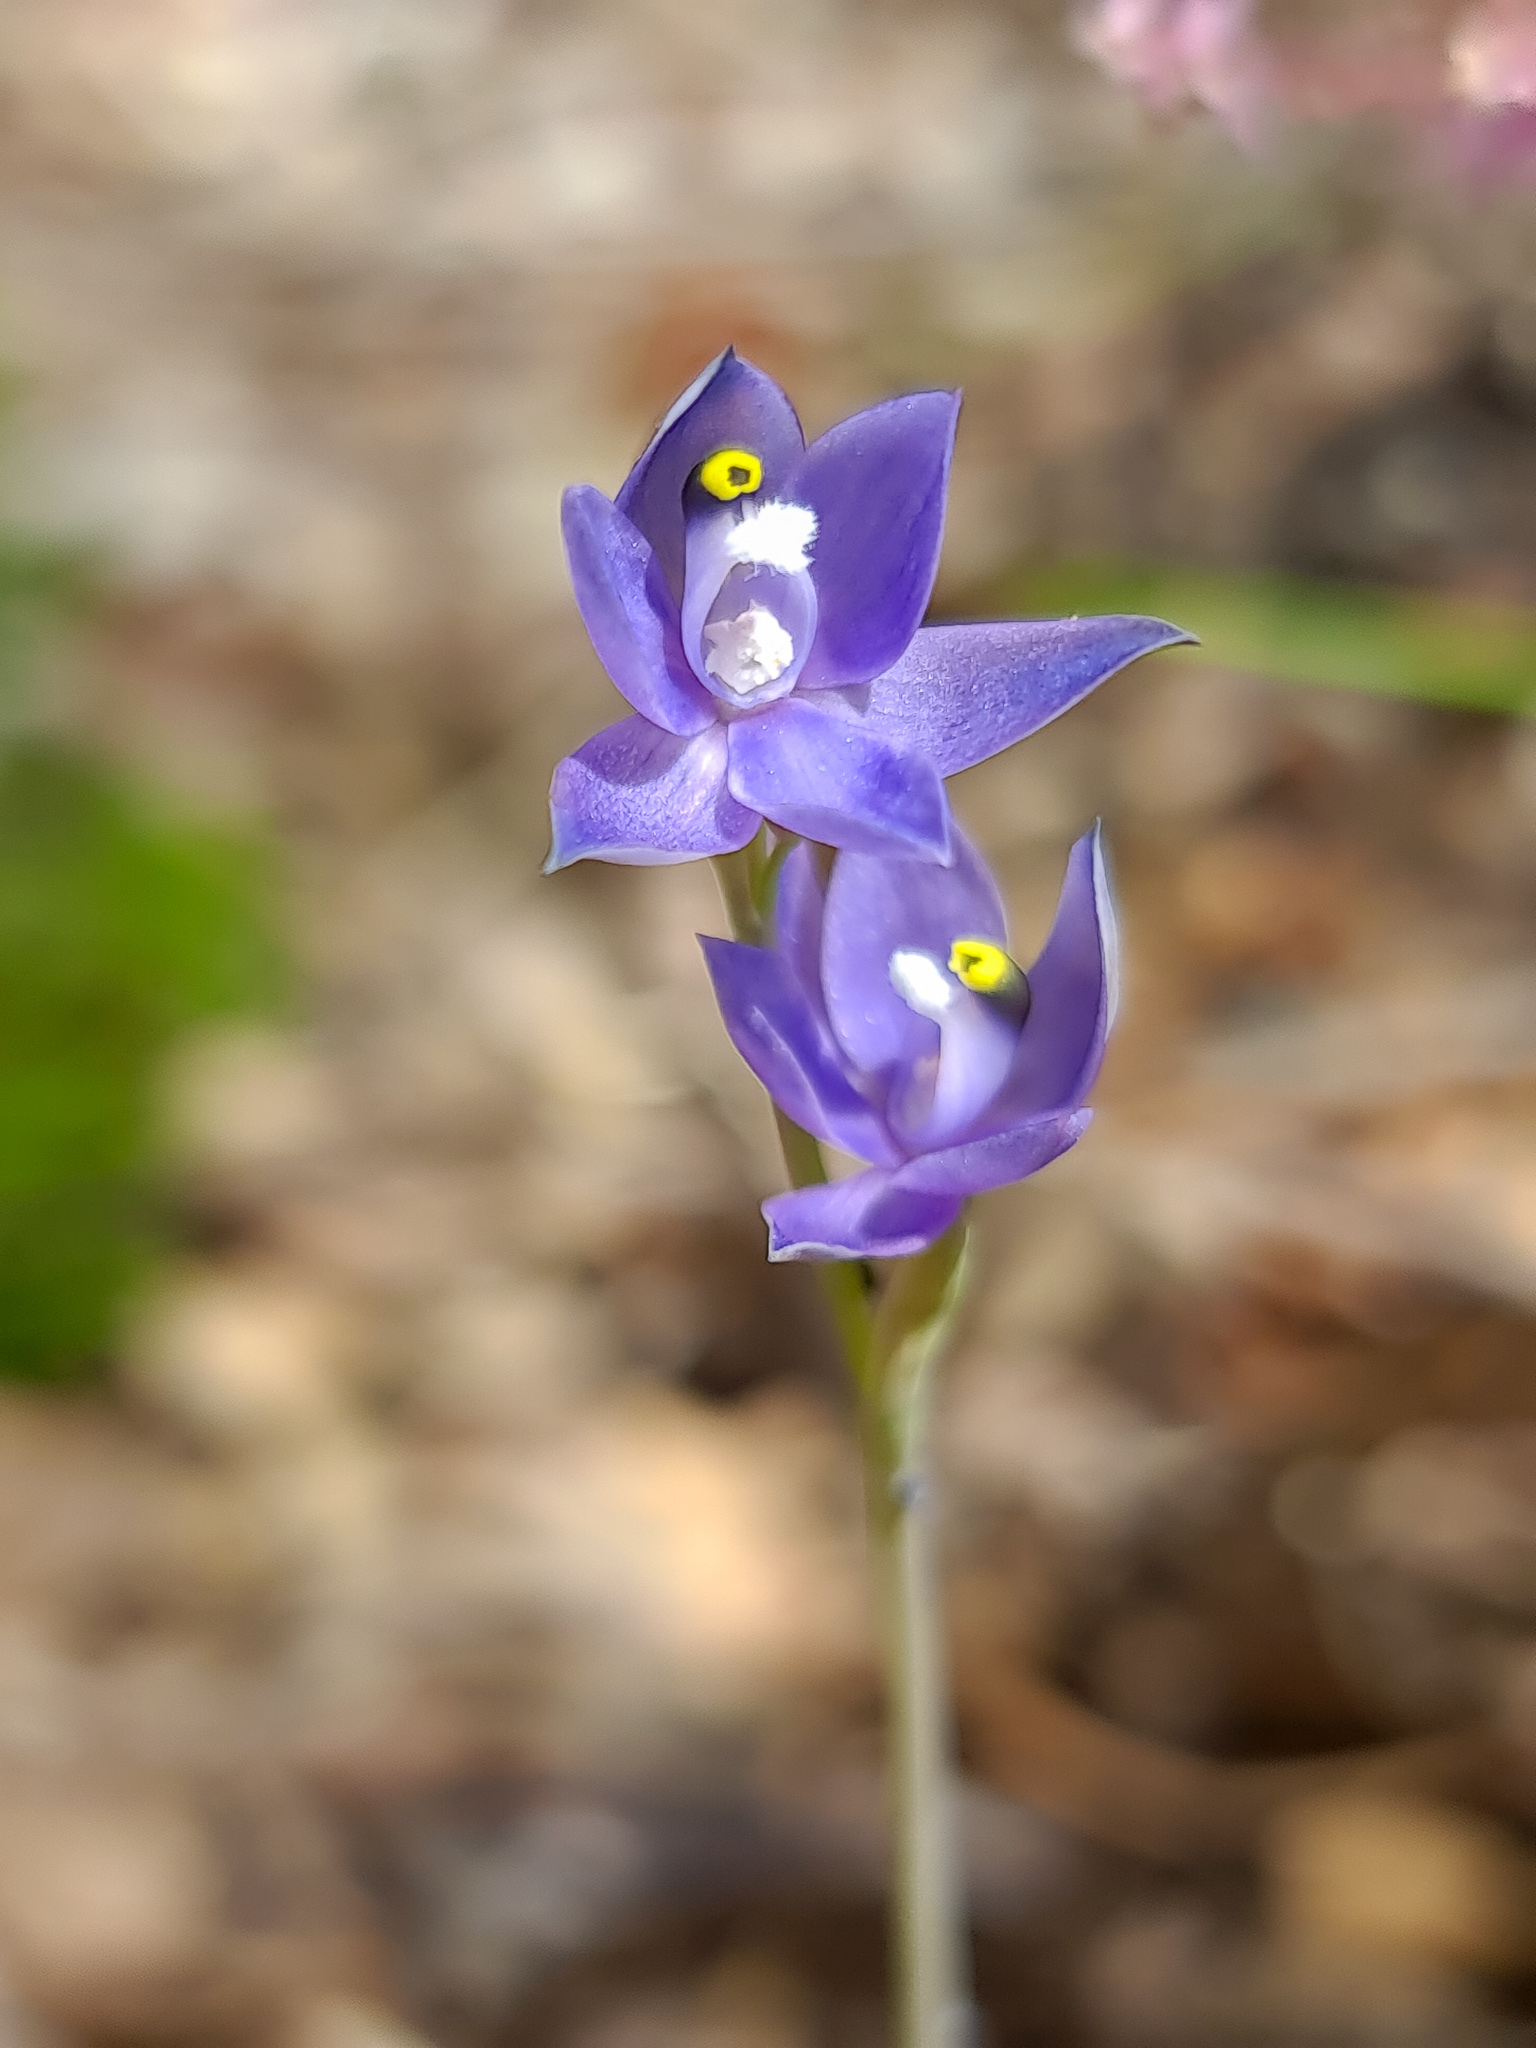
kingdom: Plantae
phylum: Tracheophyta
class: Liliopsida
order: Asparagales
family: Orchidaceae
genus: Thelymitra
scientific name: Thelymitra graminea
